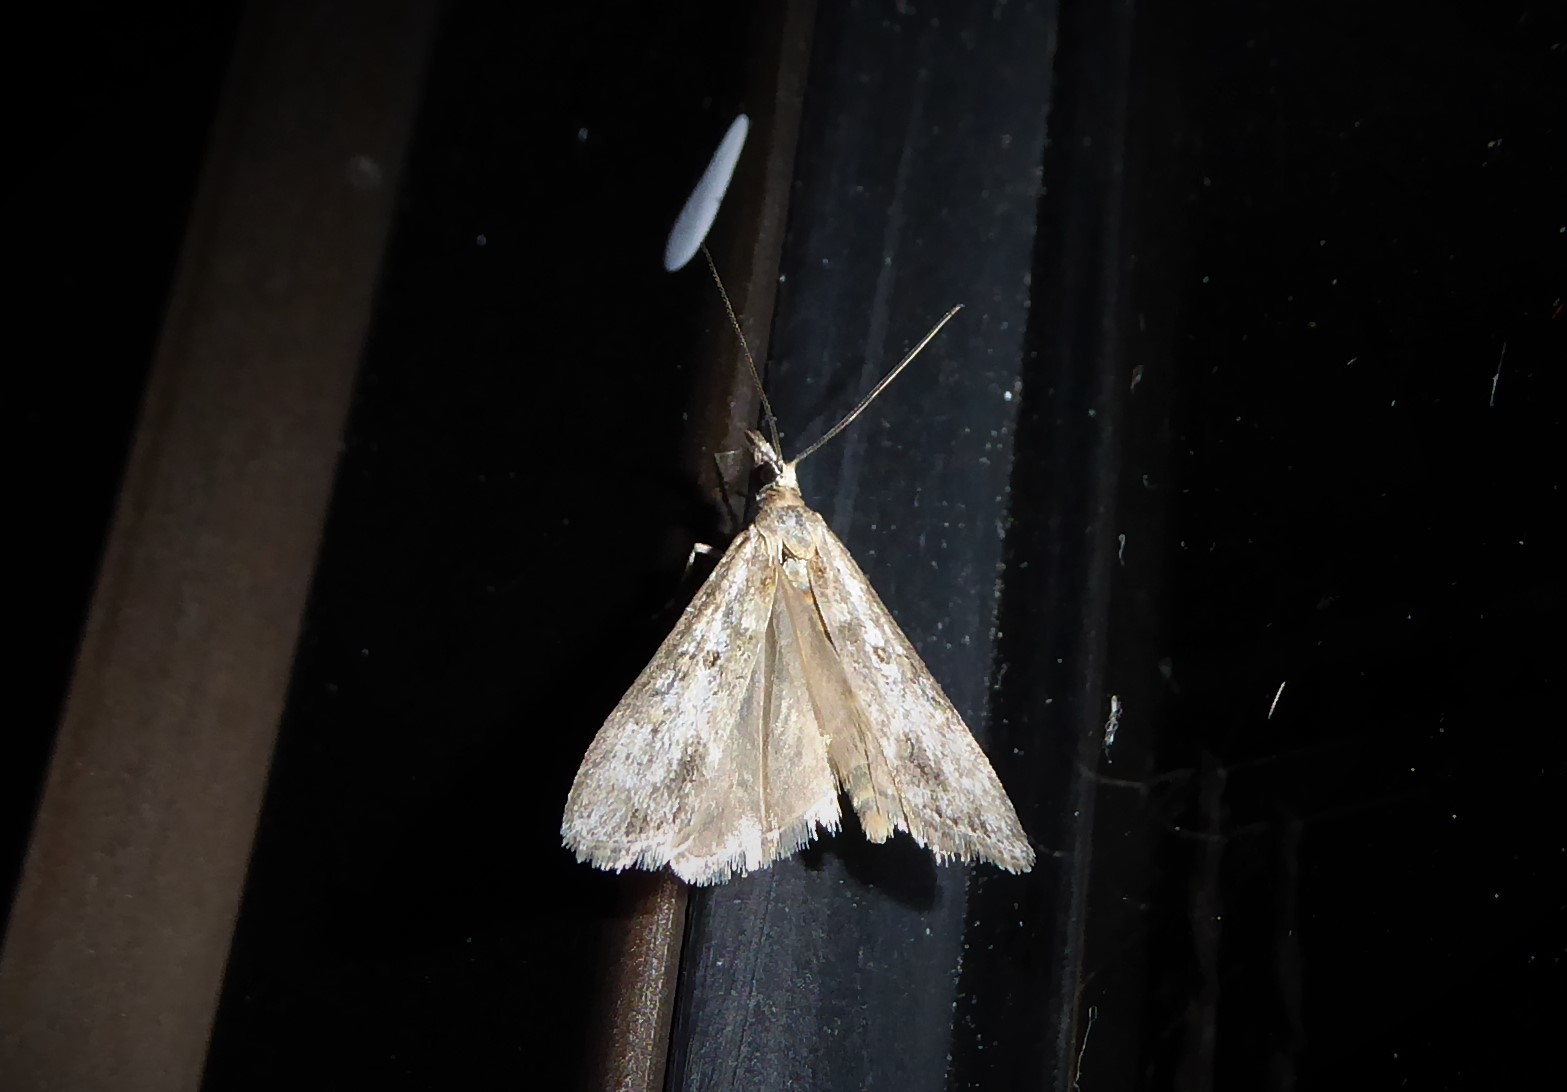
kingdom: Animalia
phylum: Arthropoda
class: Insecta
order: Lepidoptera
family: Crambidae
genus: Eudonia
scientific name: Eudonia leptalea
